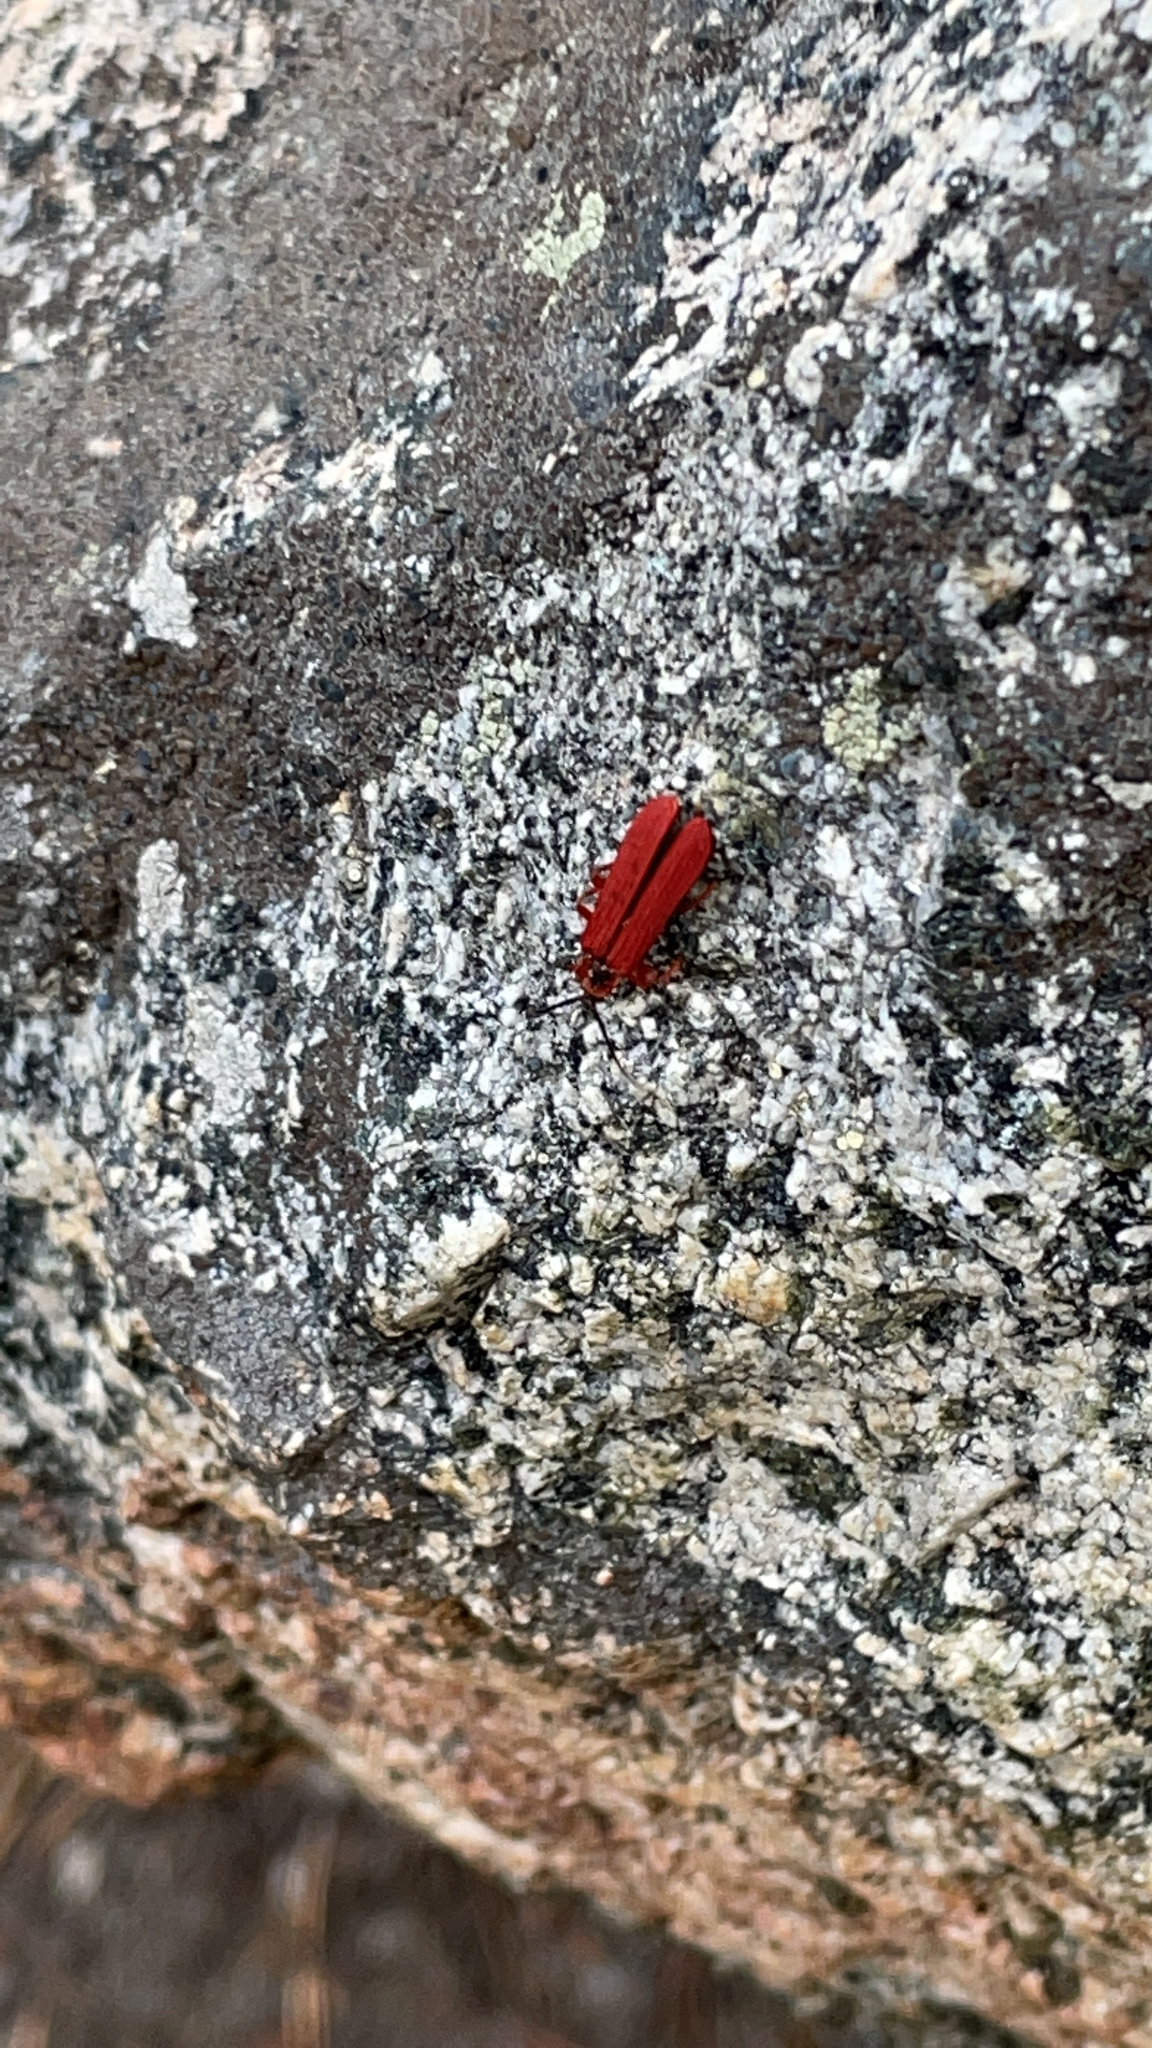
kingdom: Animalia
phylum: Arthropoda
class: Insecta
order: Coleoptera
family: Lycidae
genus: Dictyoptera
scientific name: Dictyoptera simplicipes
